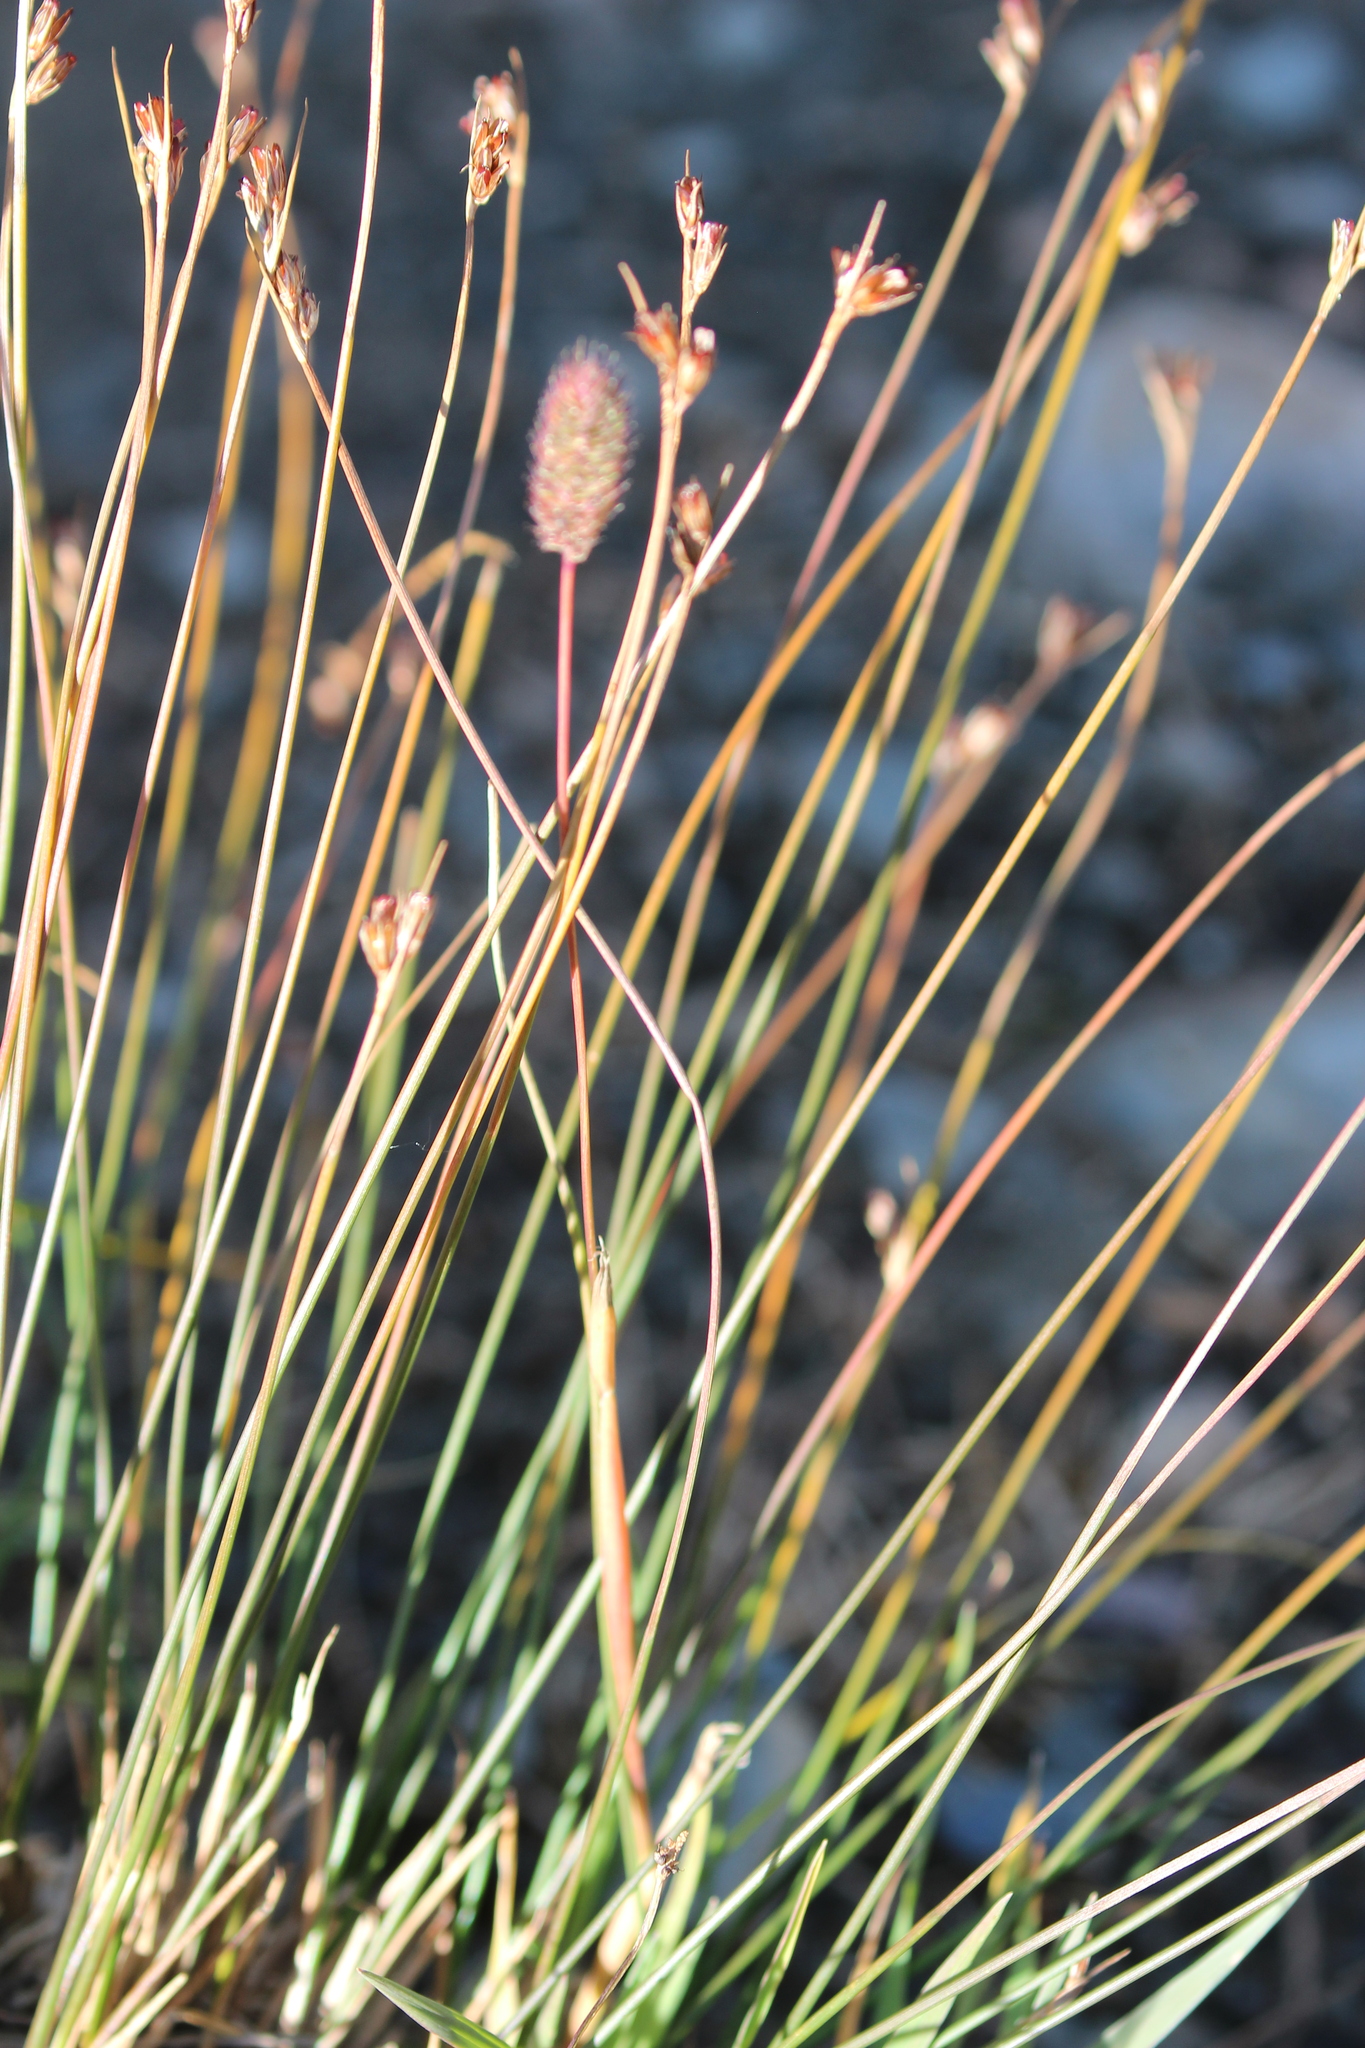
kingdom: Plantae
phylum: Tracheophyta
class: Liliopsida
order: Poales
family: Poaceae
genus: Phleum
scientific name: Phleum alpinum
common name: Alpine cat's-tail
